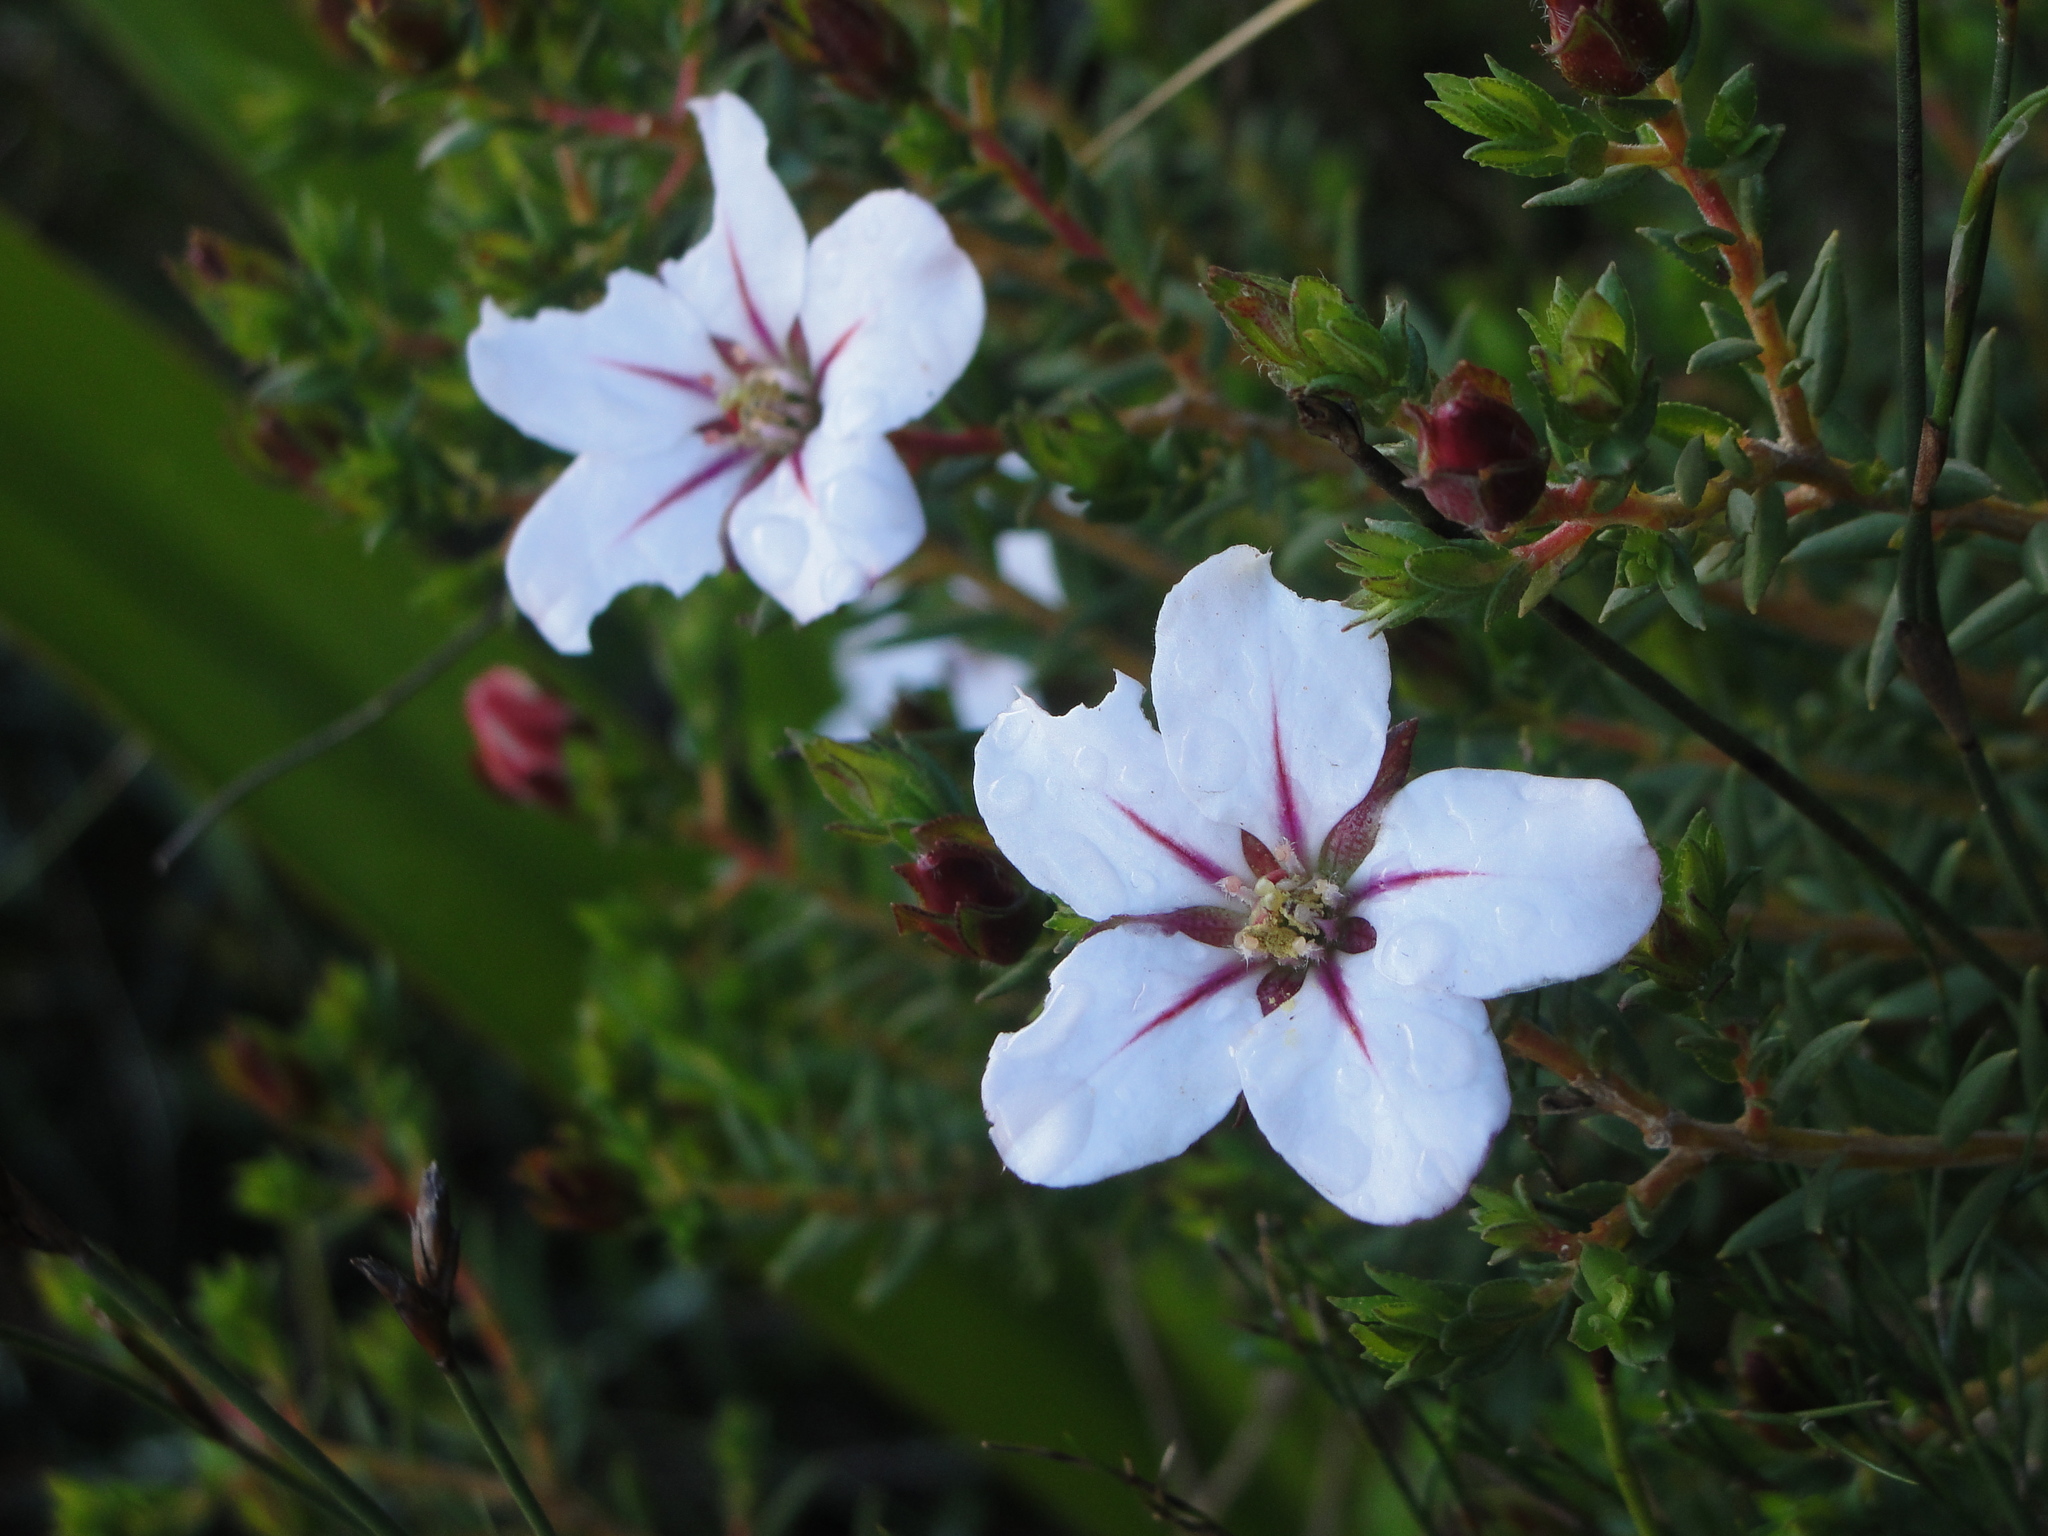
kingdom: Plantae
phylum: Tracheophyta
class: Magnoliopsida
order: Sapindales
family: Rutaceae
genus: Adenandra
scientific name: Adenandra uniflora
